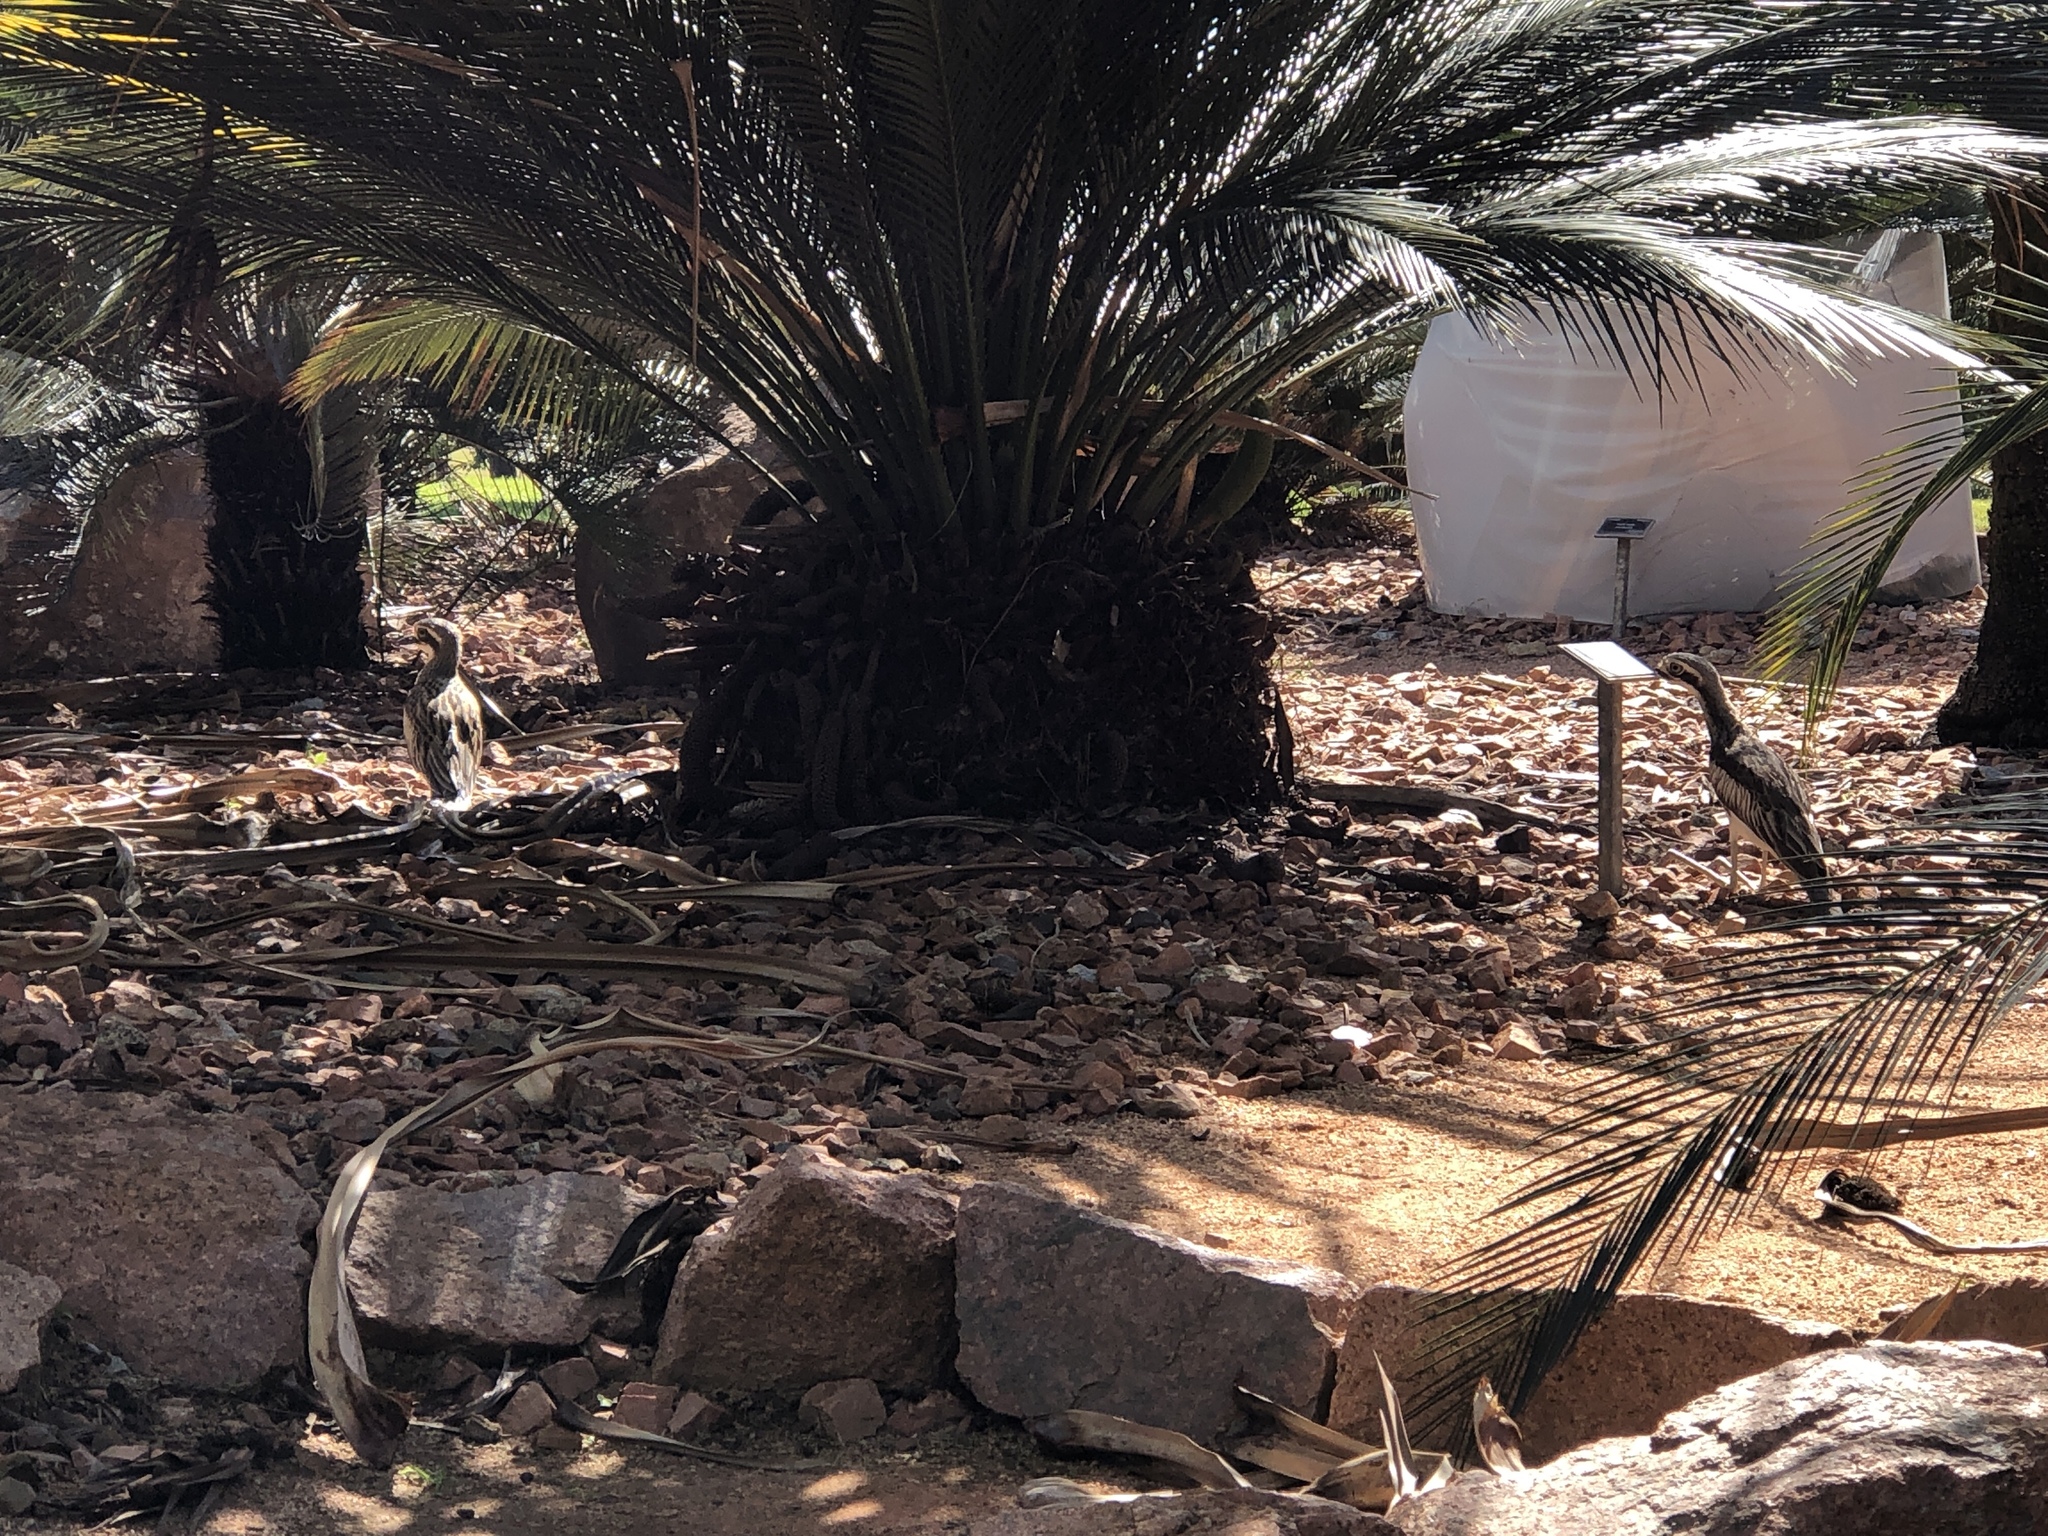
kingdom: Animalia
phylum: Chordata
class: Aves
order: Charadriiformes
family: Burhinidae
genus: Burhinus
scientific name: Burhinus grallarius
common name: Bush stone-curlew
